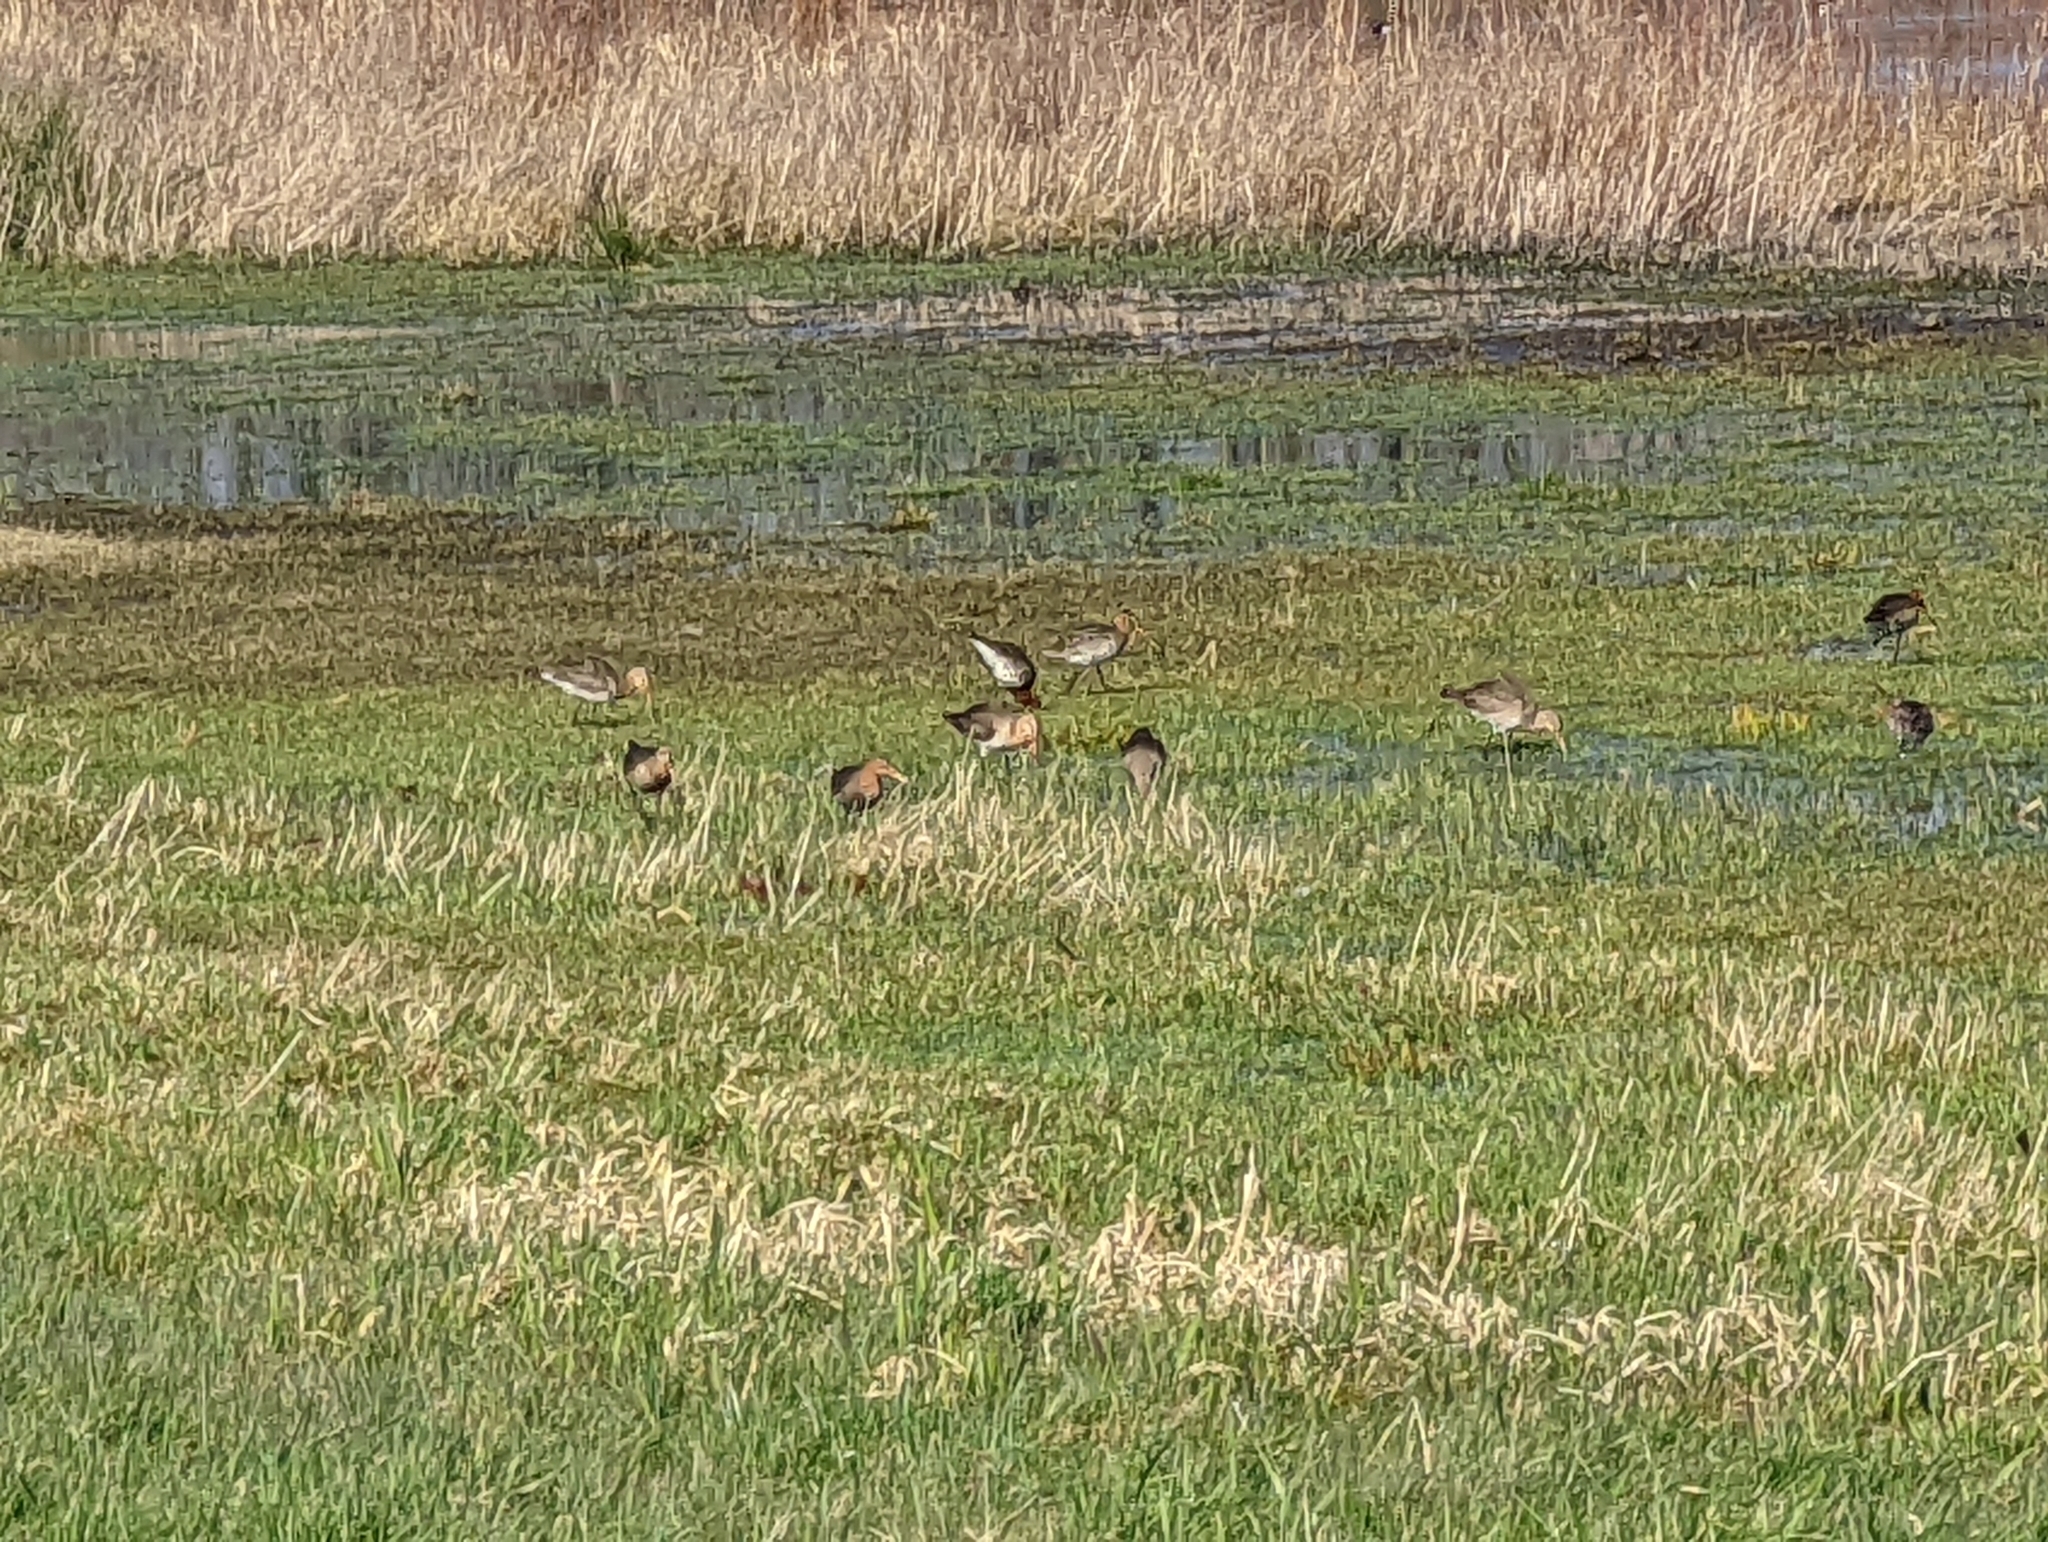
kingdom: Animalia
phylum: Chordata
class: Aves
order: Charadriiformes
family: Scolopacidae
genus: Limosa
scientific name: Limosa limosa
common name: Black-tailed godwit
